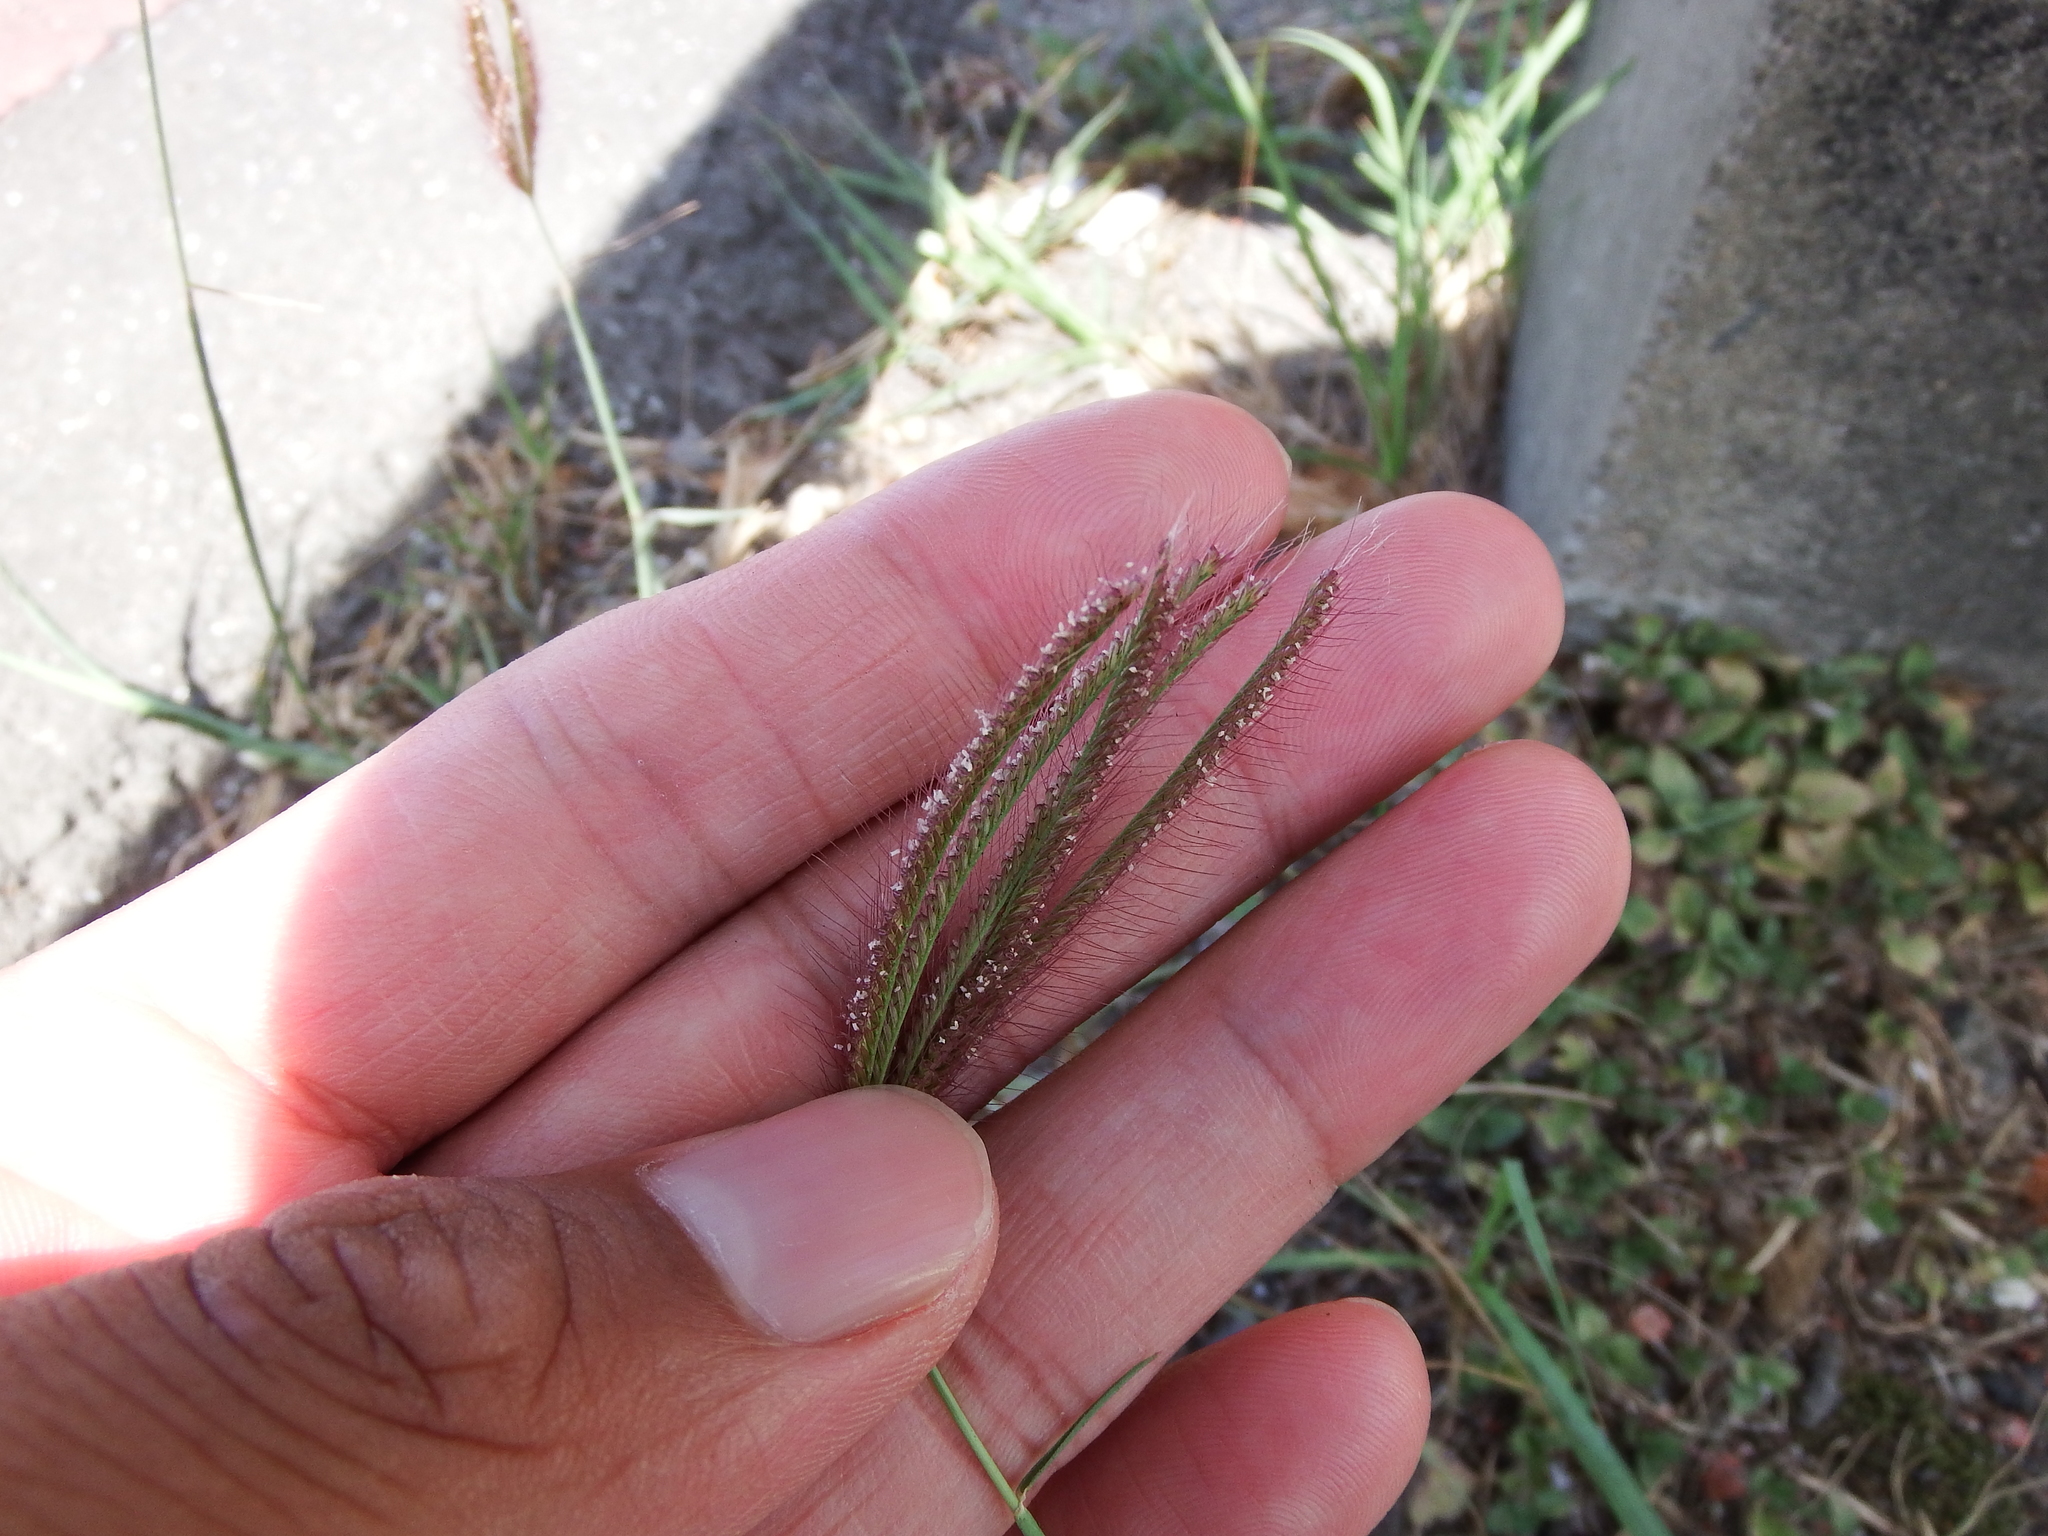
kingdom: Plantae
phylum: Tracheophyta
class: Liliopsida
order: Poales
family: Poaceae
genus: Chloris
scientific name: Chloris barbata
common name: Swollen fingergrass
